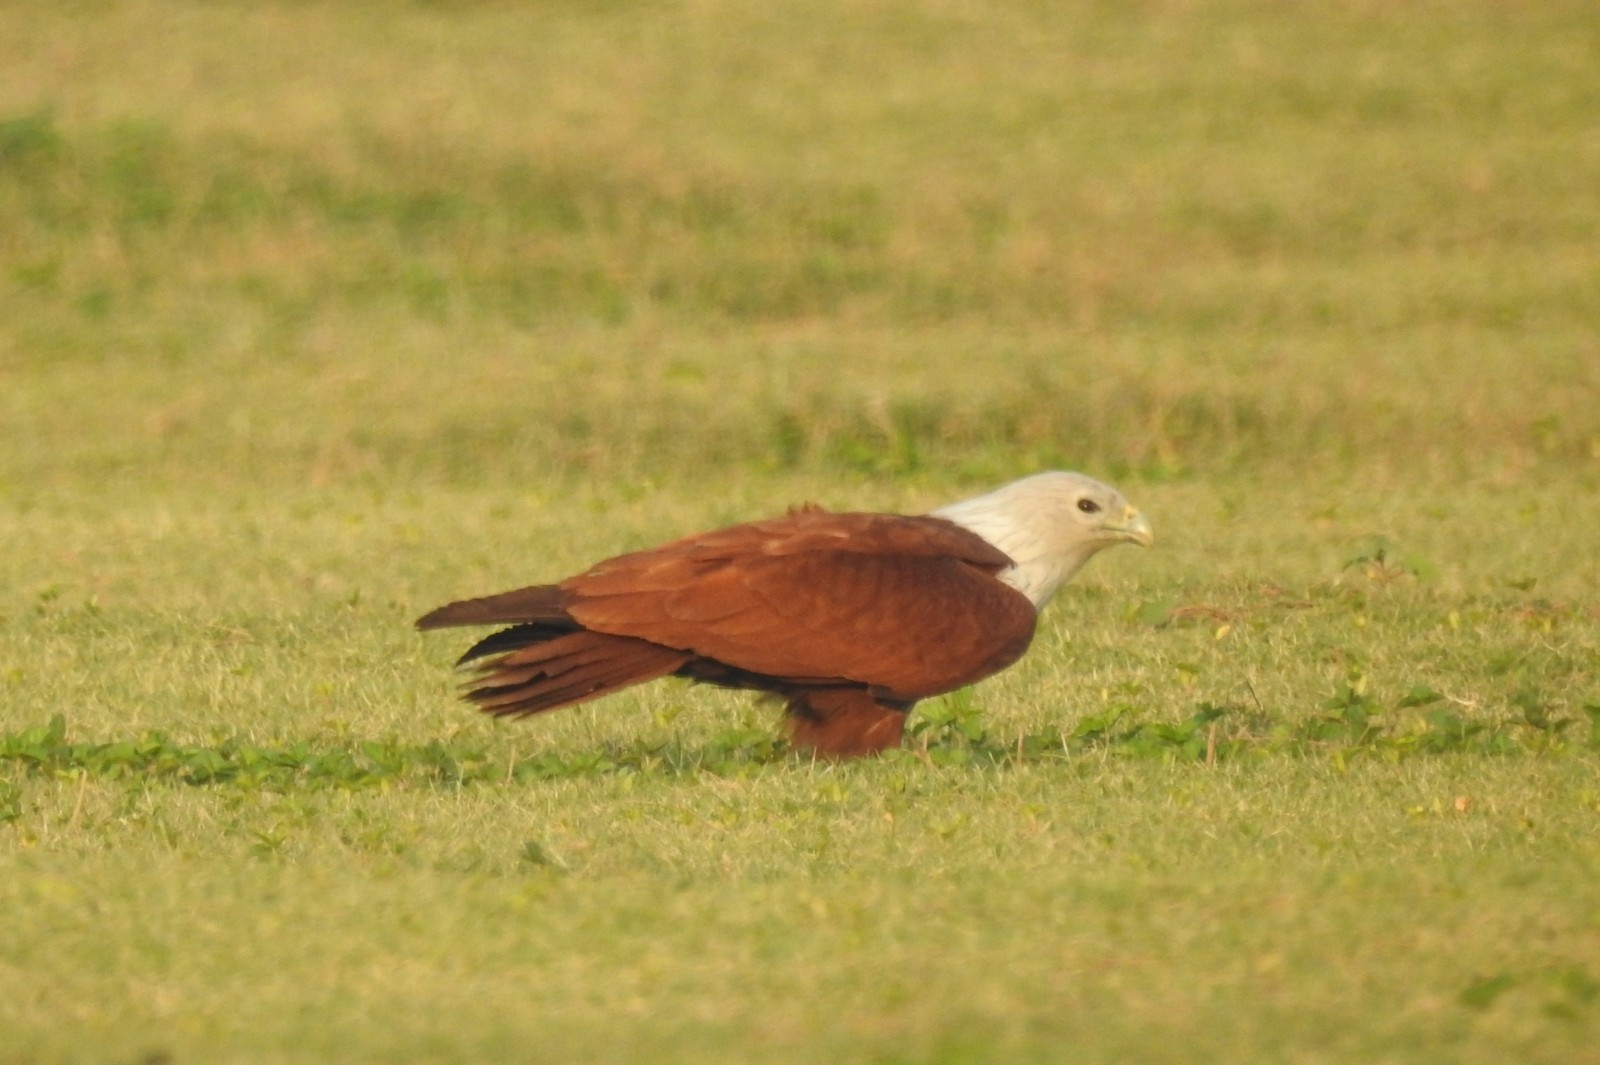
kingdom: Animalia
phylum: Chordata
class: Aves
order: Accipitriformes
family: Accipitridae
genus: Haliastur
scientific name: Haliastur indus
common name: Brahminy kite
